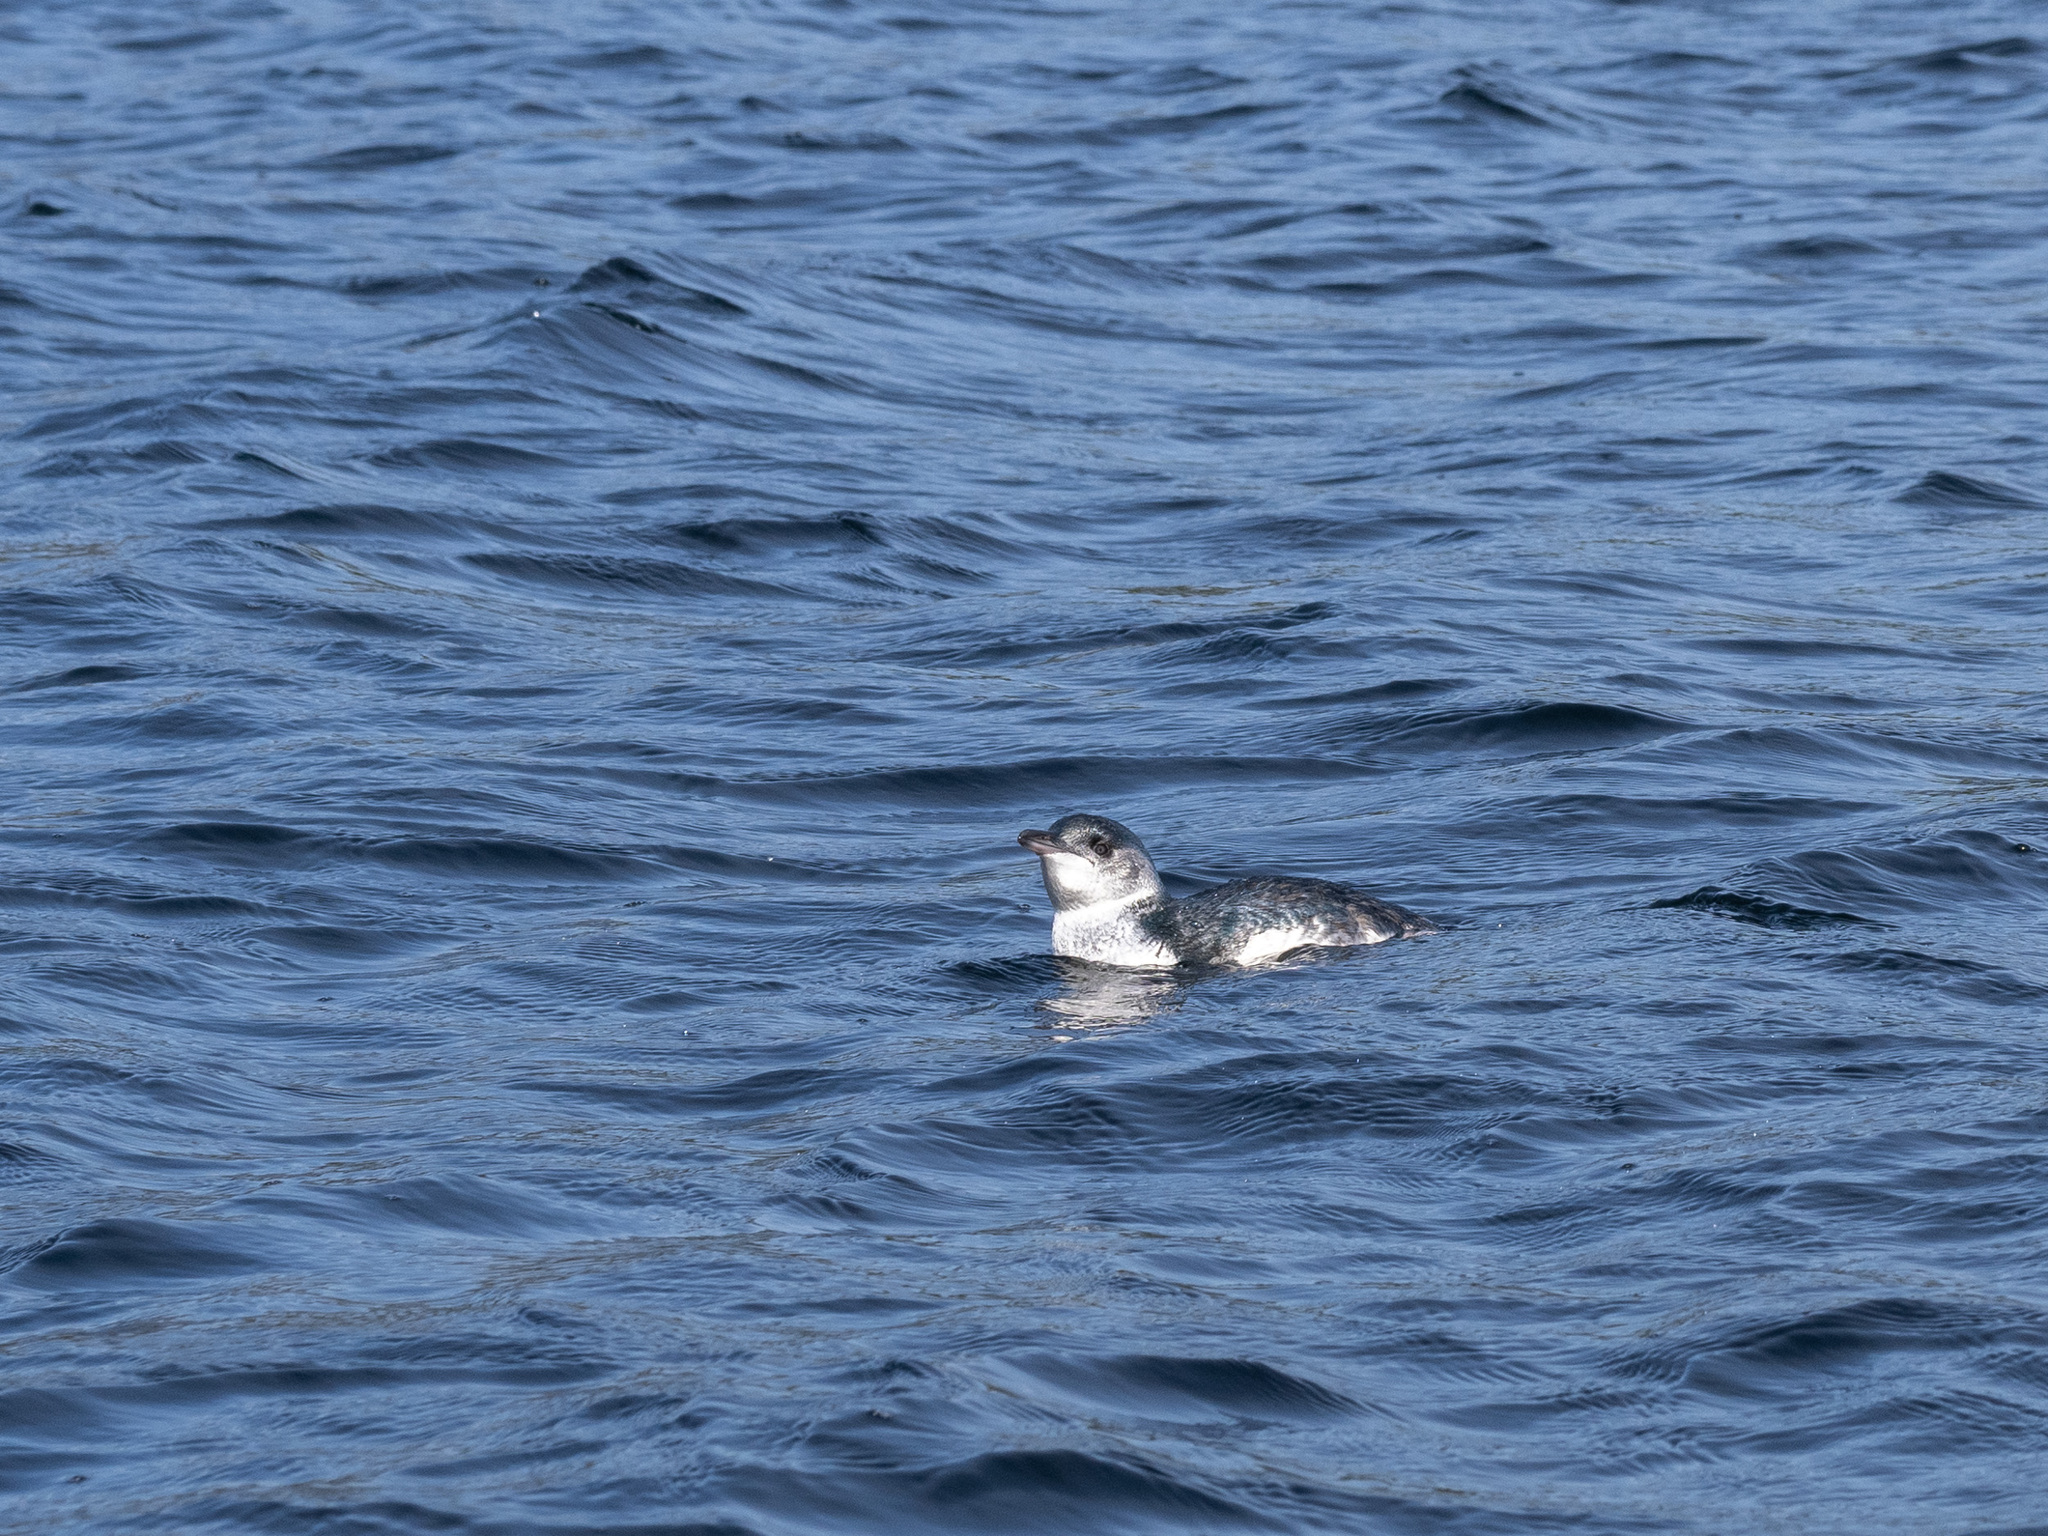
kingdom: Animalia
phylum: Chordata
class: Aves
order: Sphenisciformes
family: Spheniscidae
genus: Eudyptula
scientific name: Eudyptula minor
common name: Little penguin
